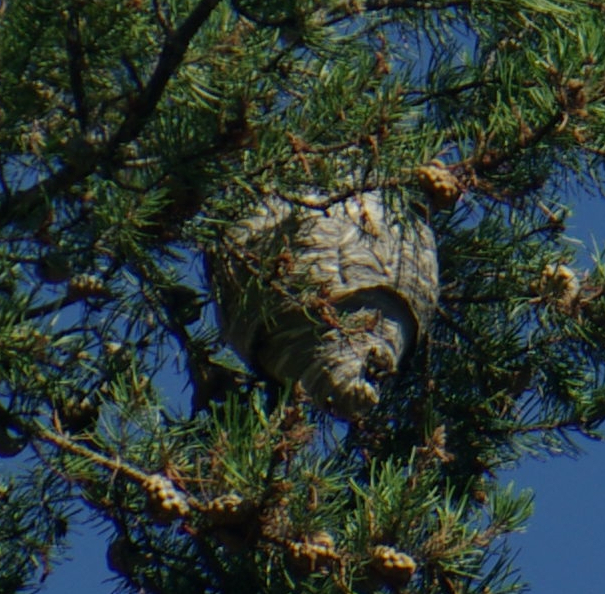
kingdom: Animalia
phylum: Arthropoda
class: Insecta
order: Hymenoptera
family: Vespidae
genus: Dolichovespula
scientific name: Dolichovespula
